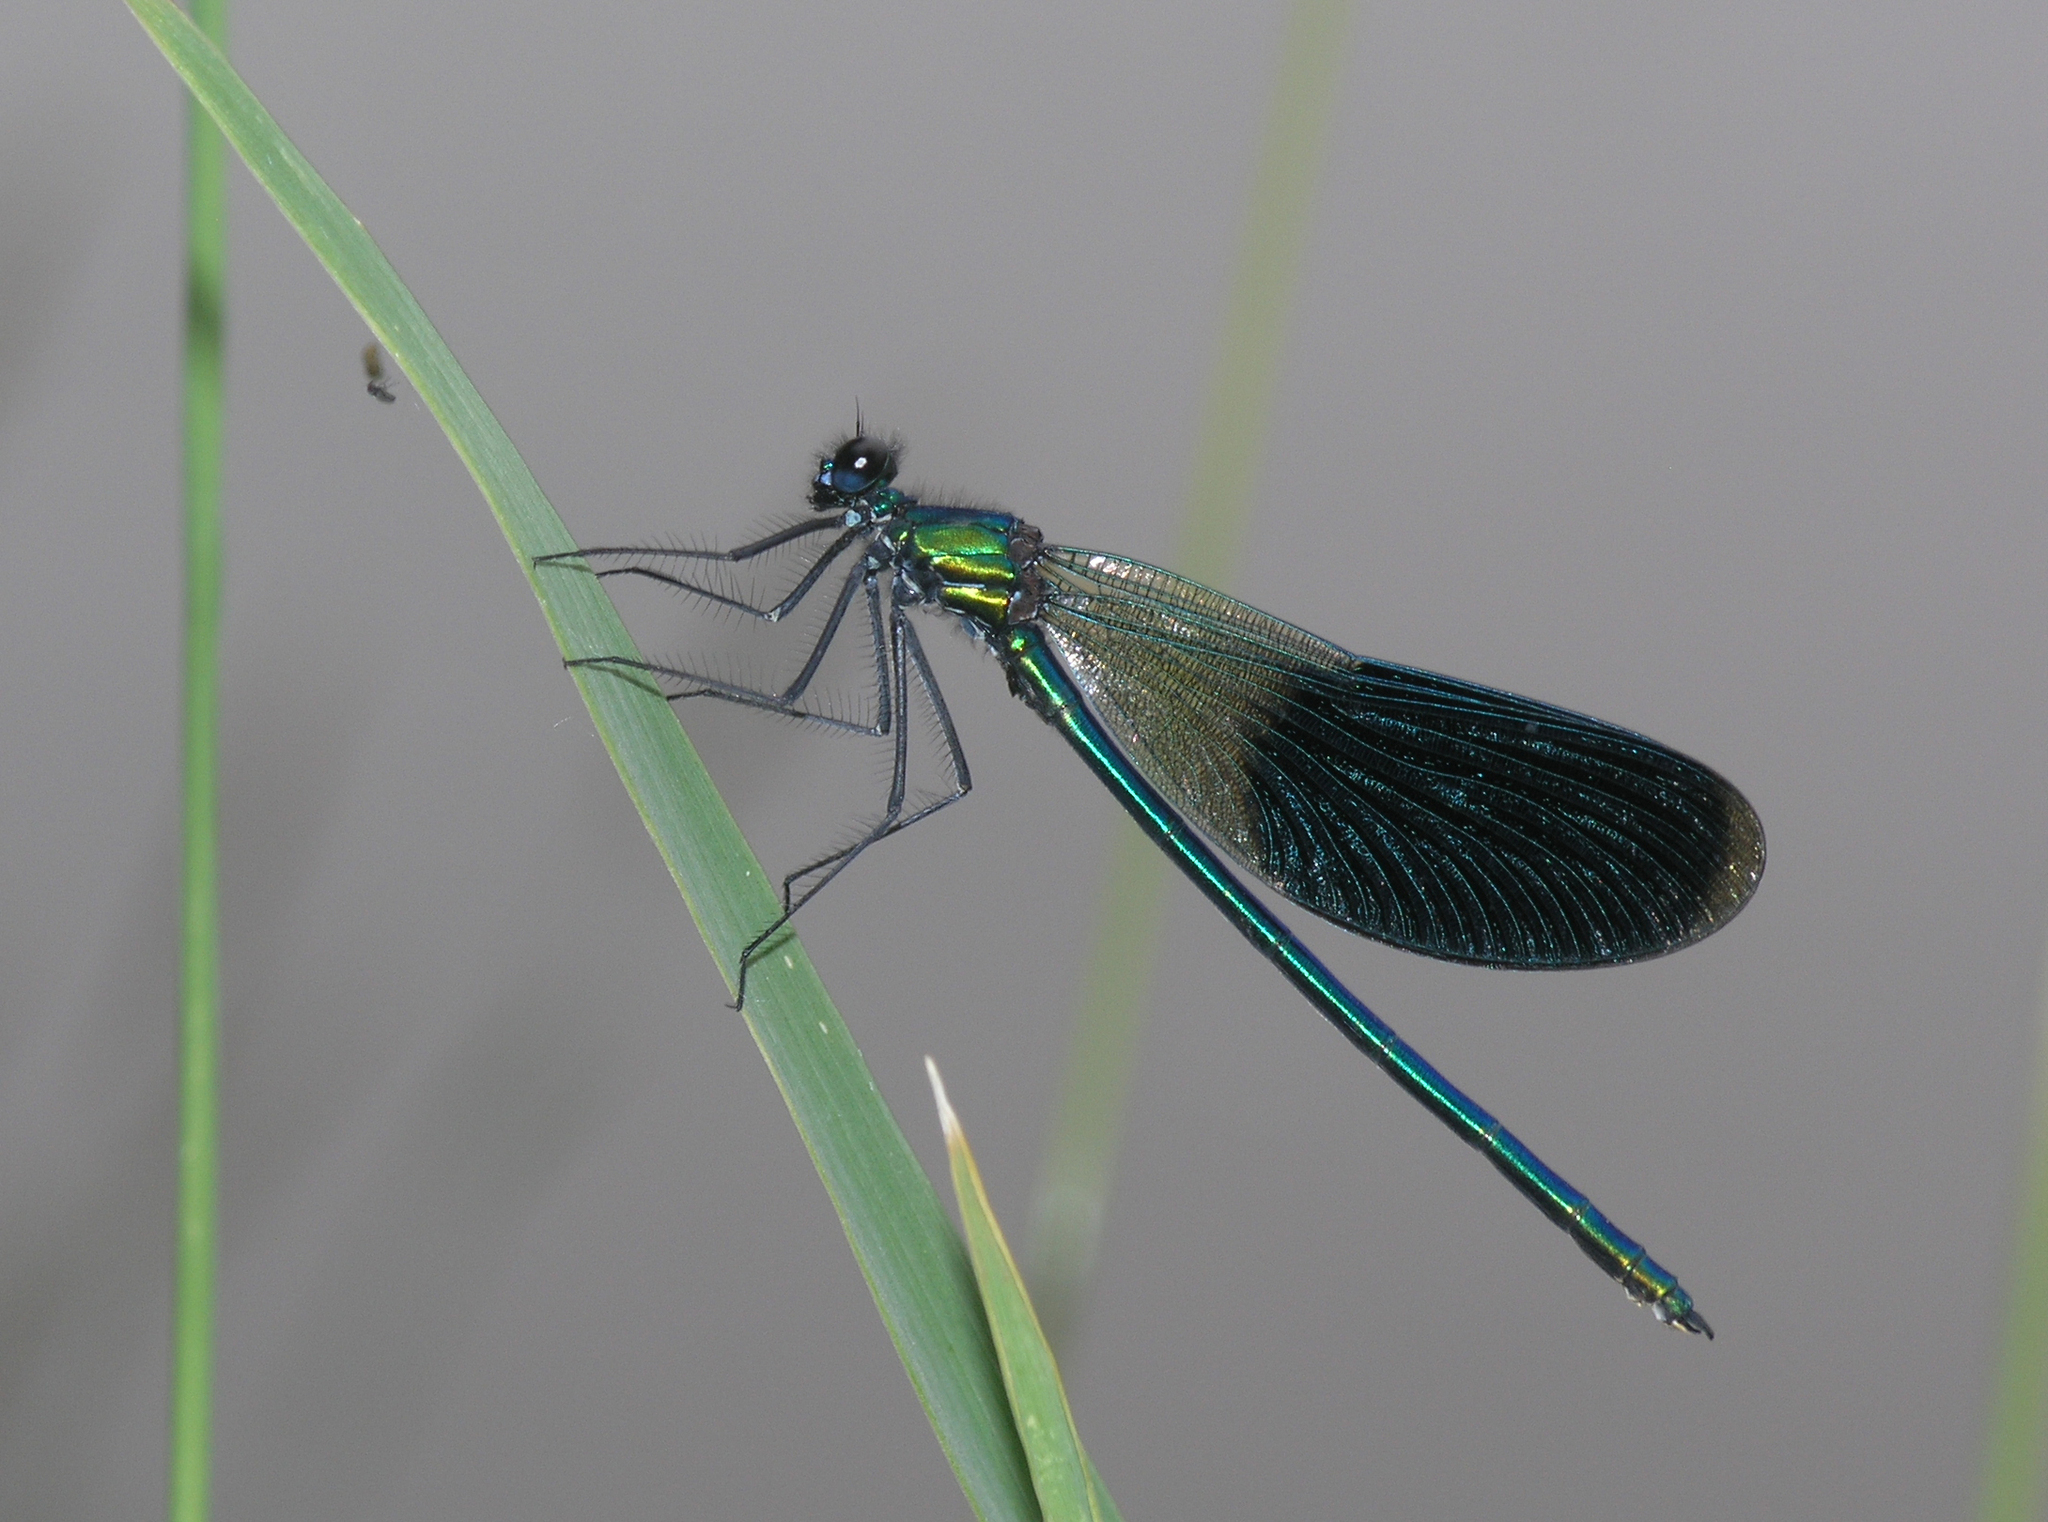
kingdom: Animalia
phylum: Arthropoda
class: Insecta
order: Odonata
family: Calopterygidae
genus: Calopteryx
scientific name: Calopteryx splendens
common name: Banded demoiselle
